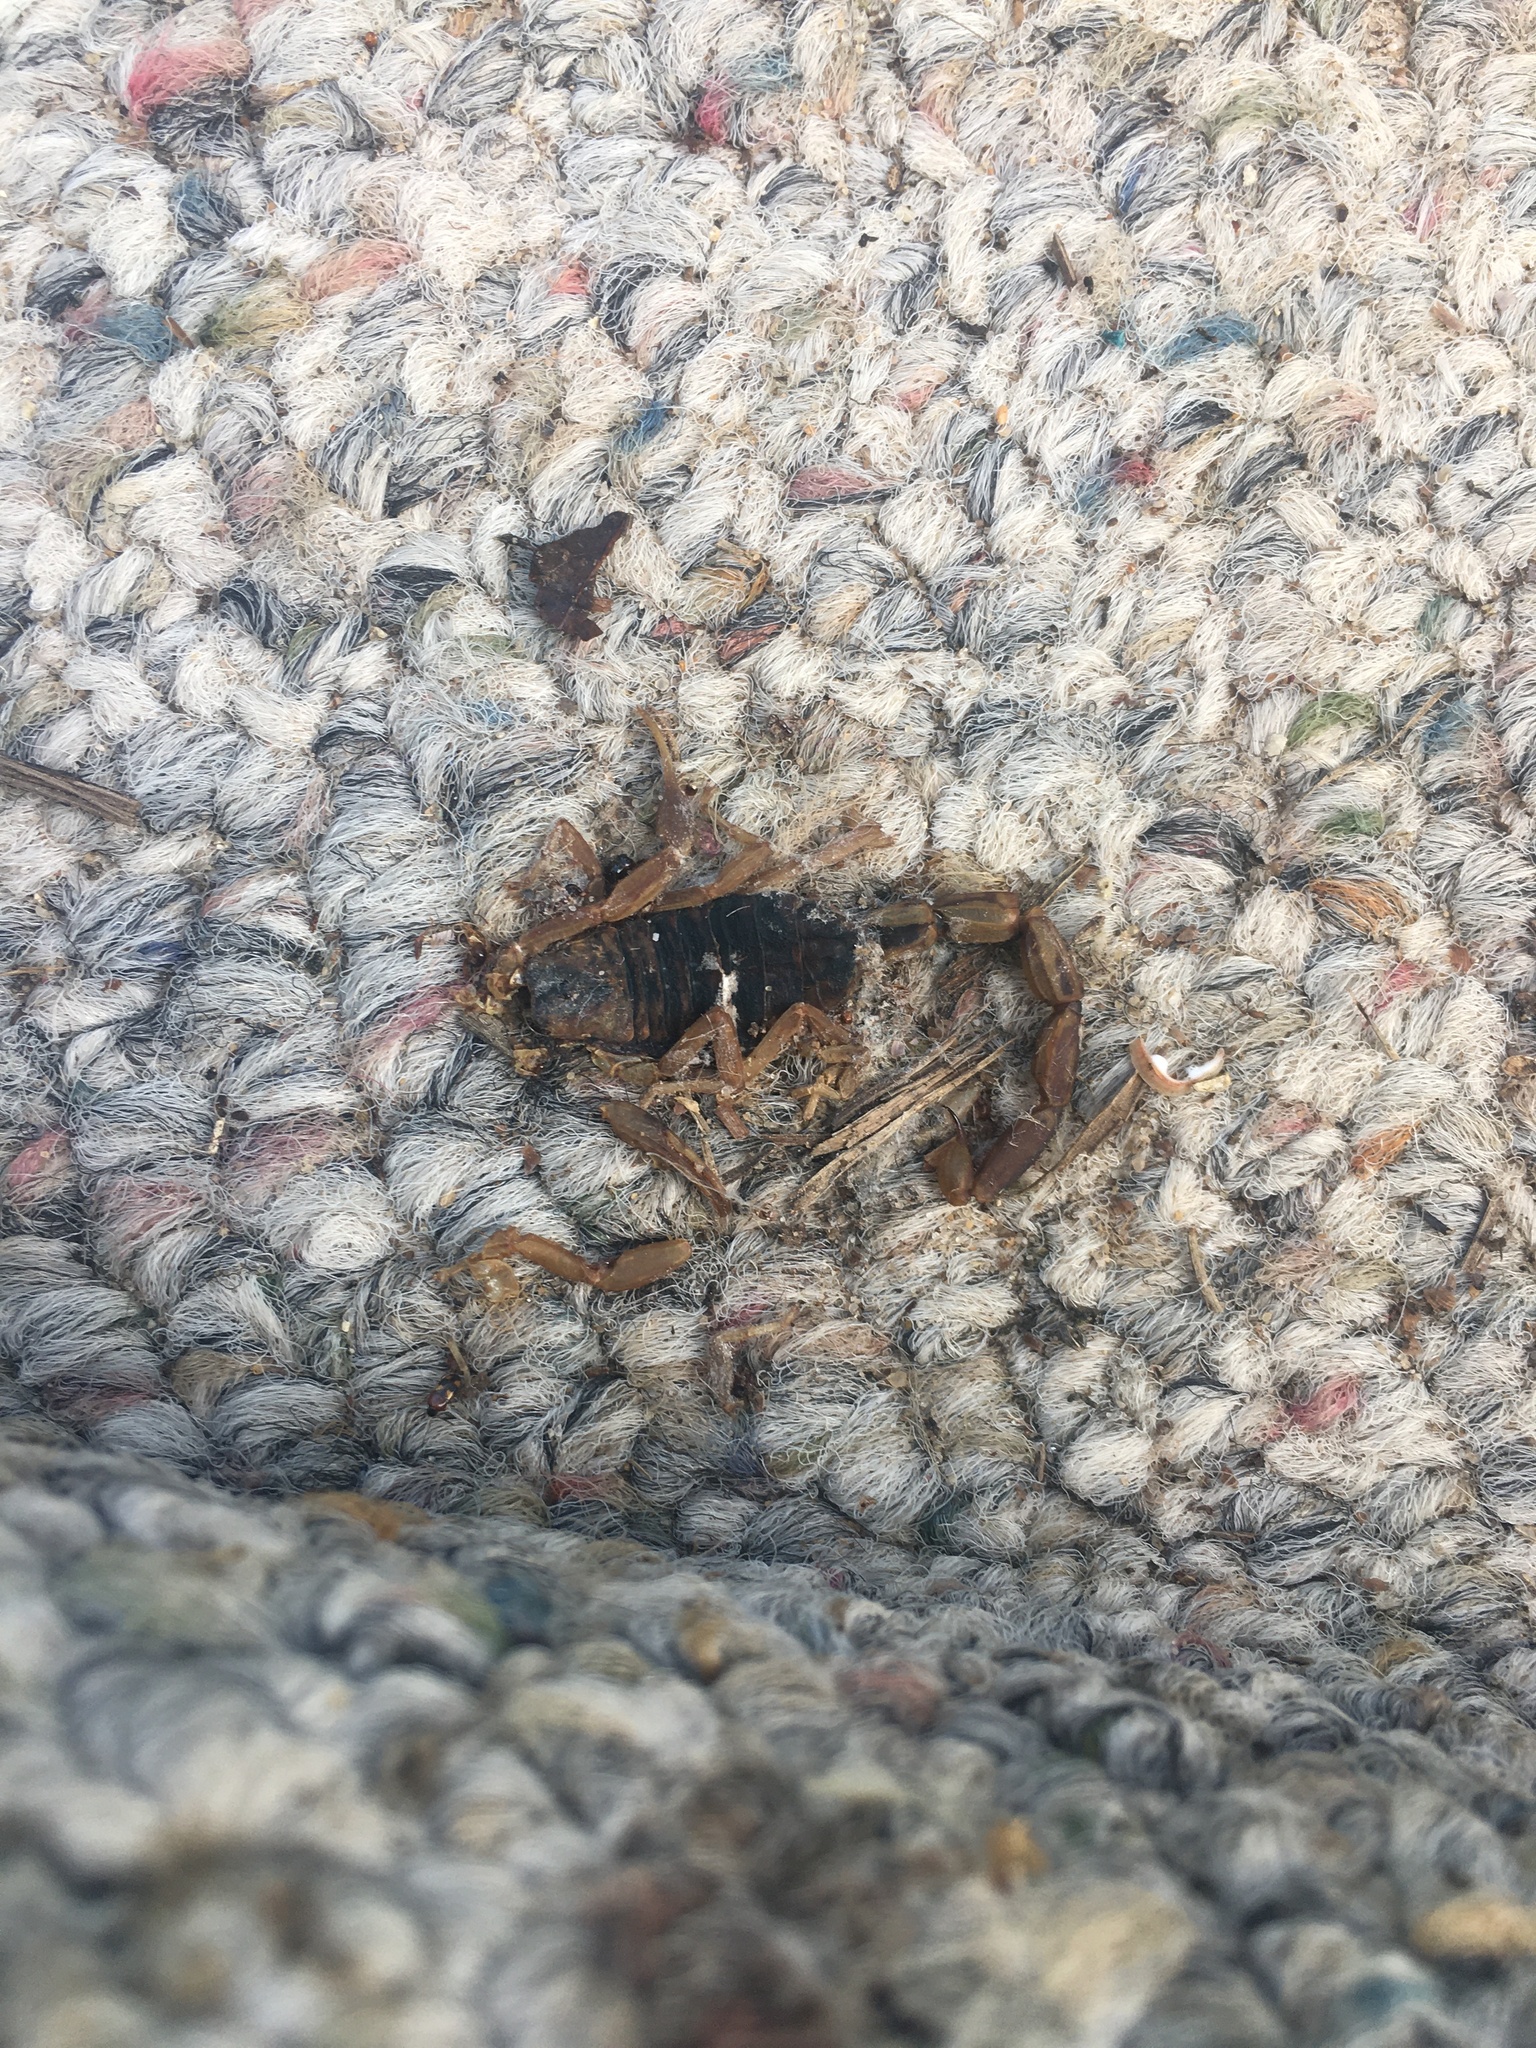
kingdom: Animalia
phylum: Arthropoda
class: Arachnida
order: Scorpiones
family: Buthidae
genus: Centruroides
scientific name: Centruroides vittatus
